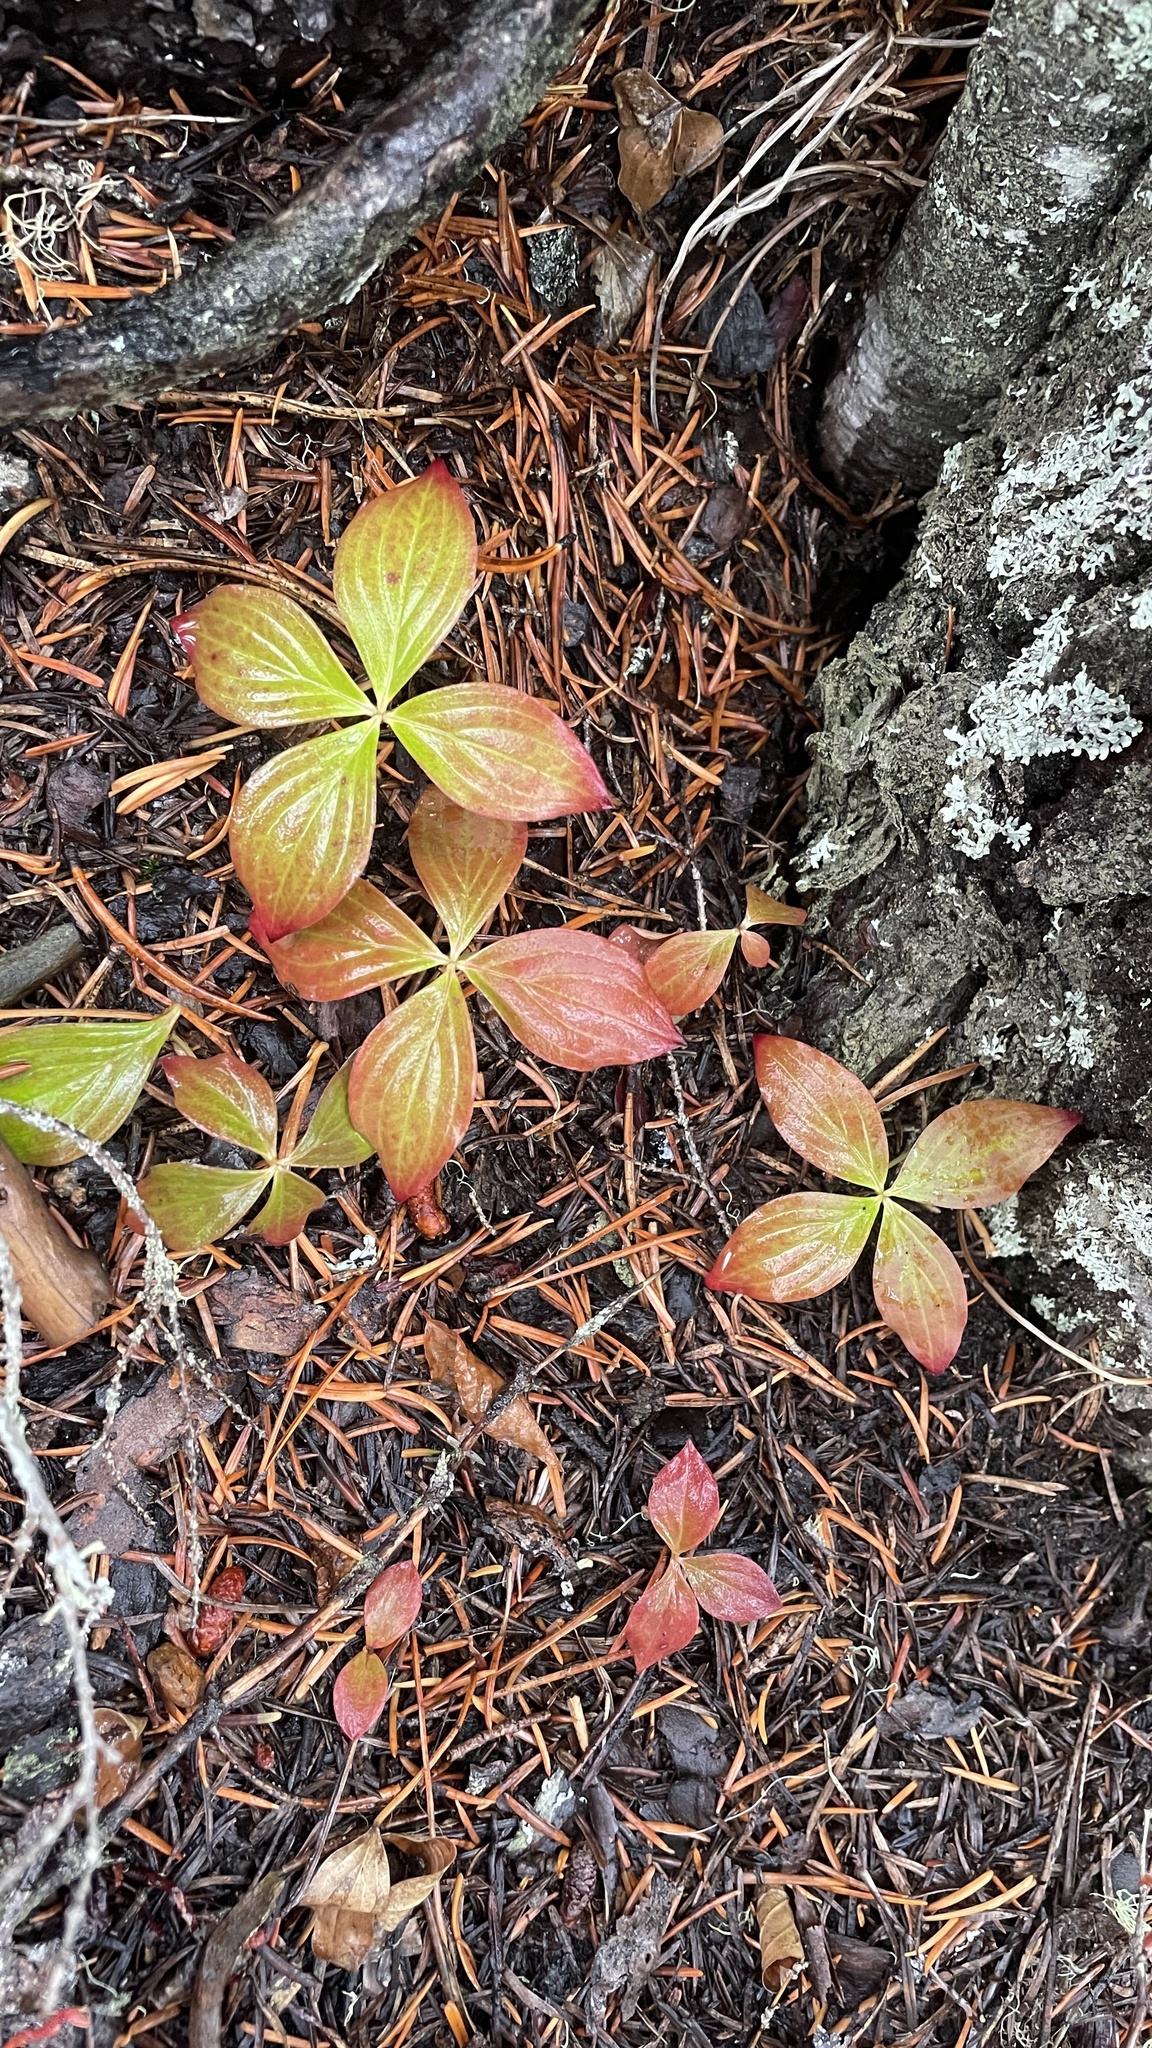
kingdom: Plantae
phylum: Tracheophyta
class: Magnoliopsida
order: Cornales
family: Cornaceae
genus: Cornus
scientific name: Cornus unalaschkensis
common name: Alaska bunchberry
